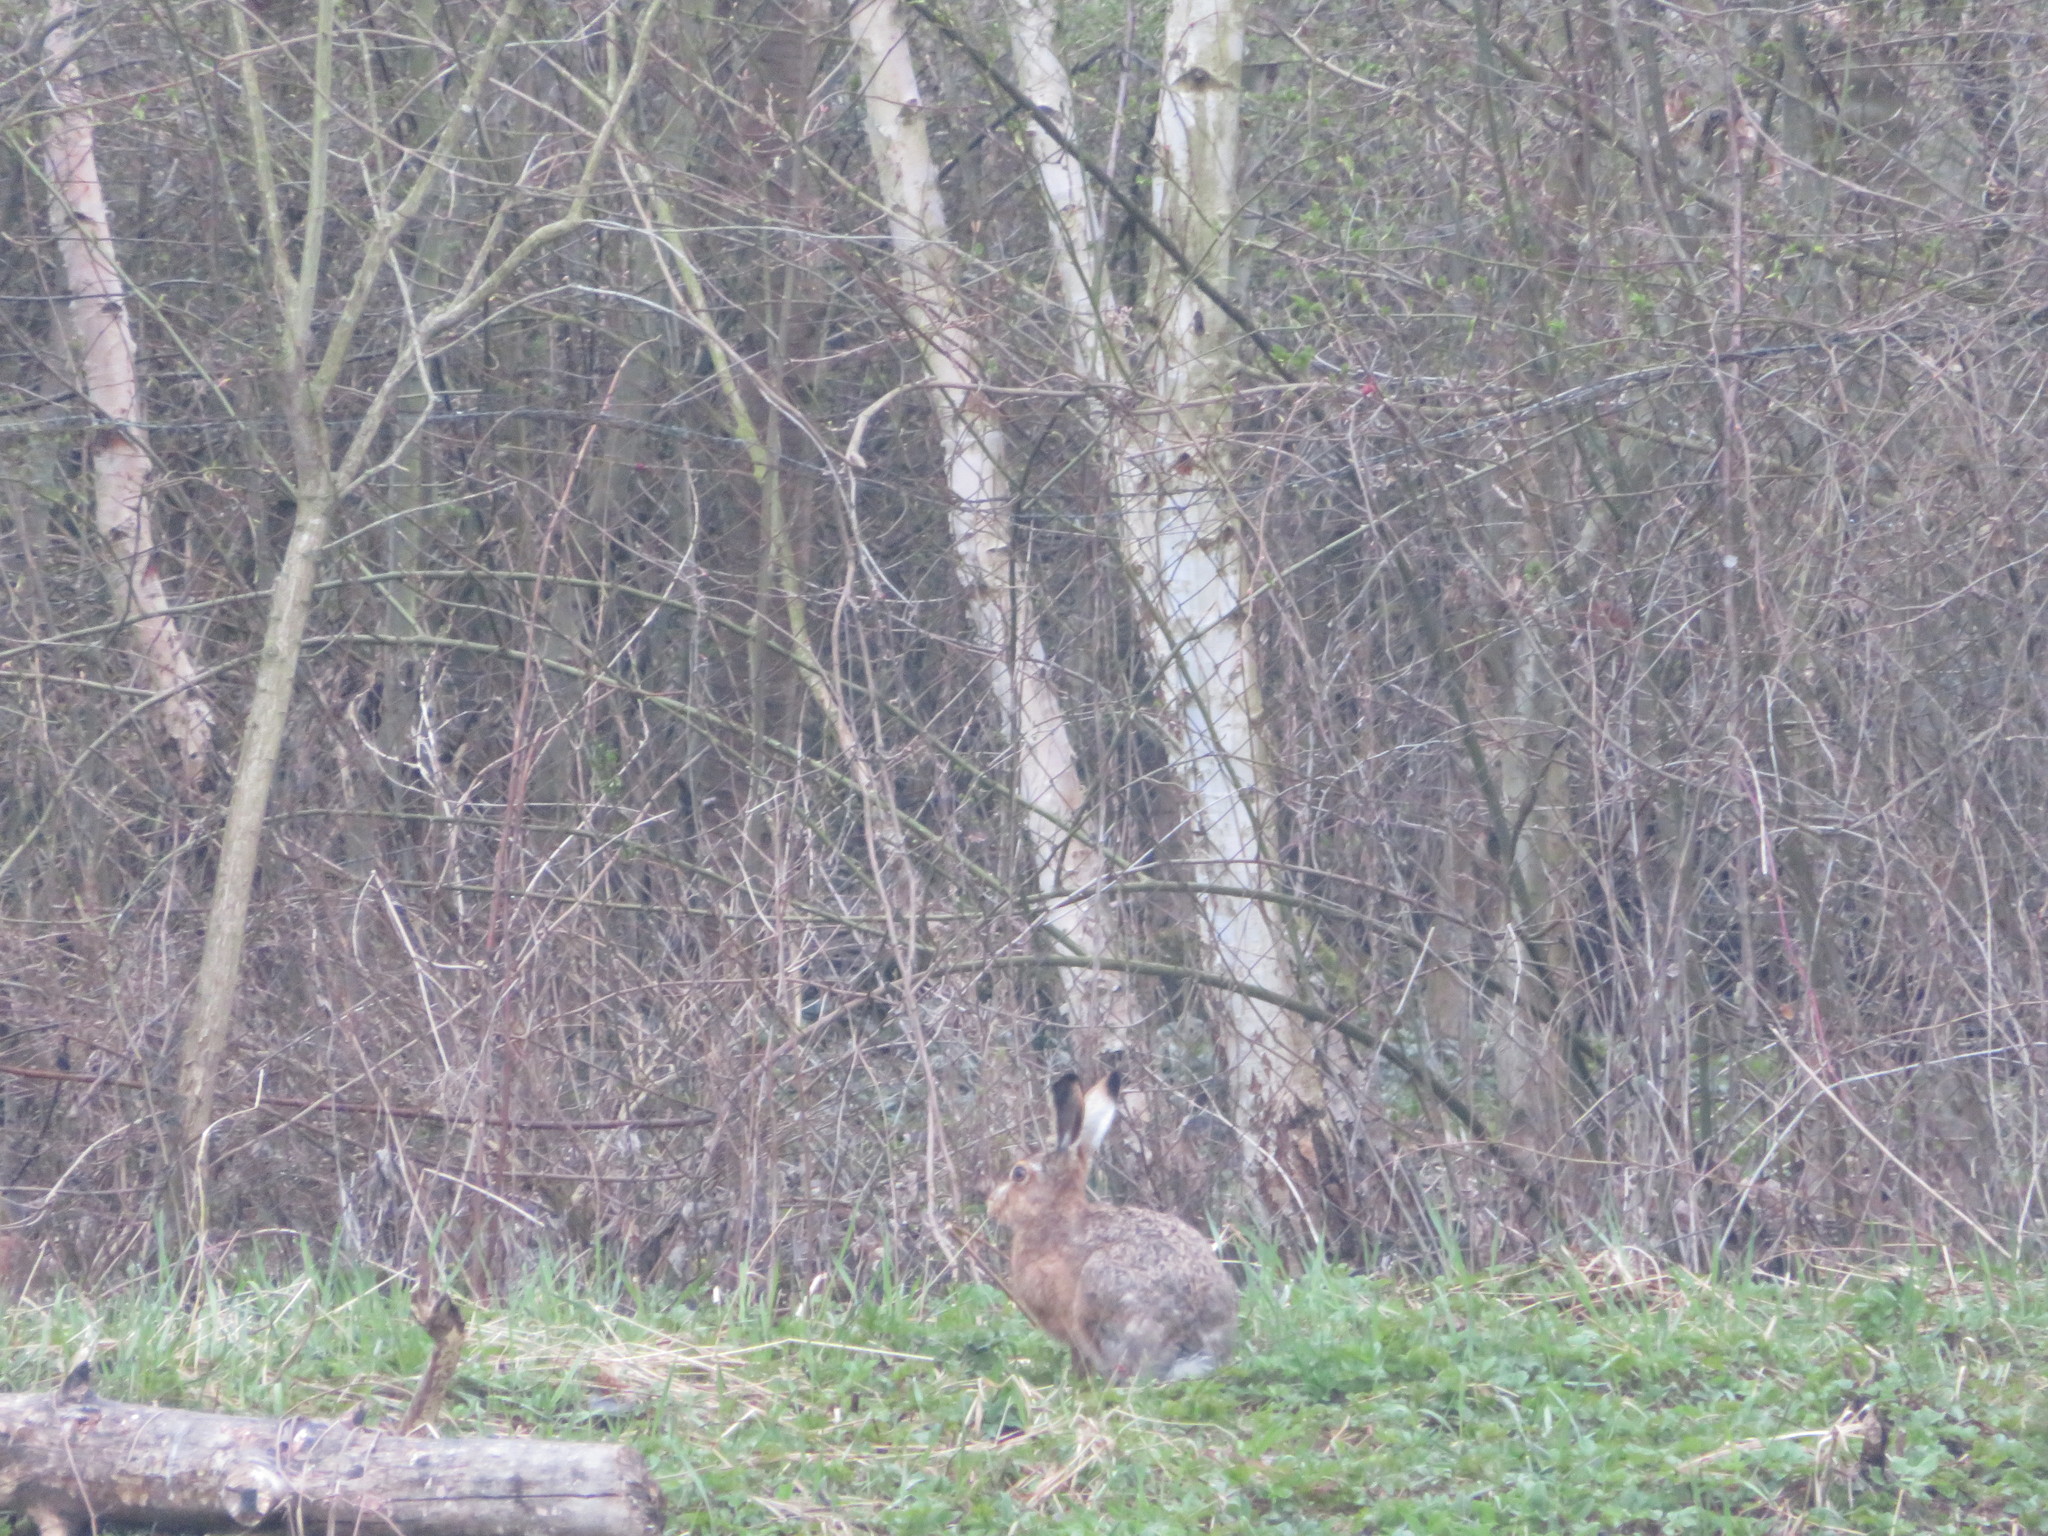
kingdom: Animalia
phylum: Chordata
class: Mammalia
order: Lagomorpha
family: Leporidae
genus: Lepus
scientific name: Lepus europaeus
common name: European hare
